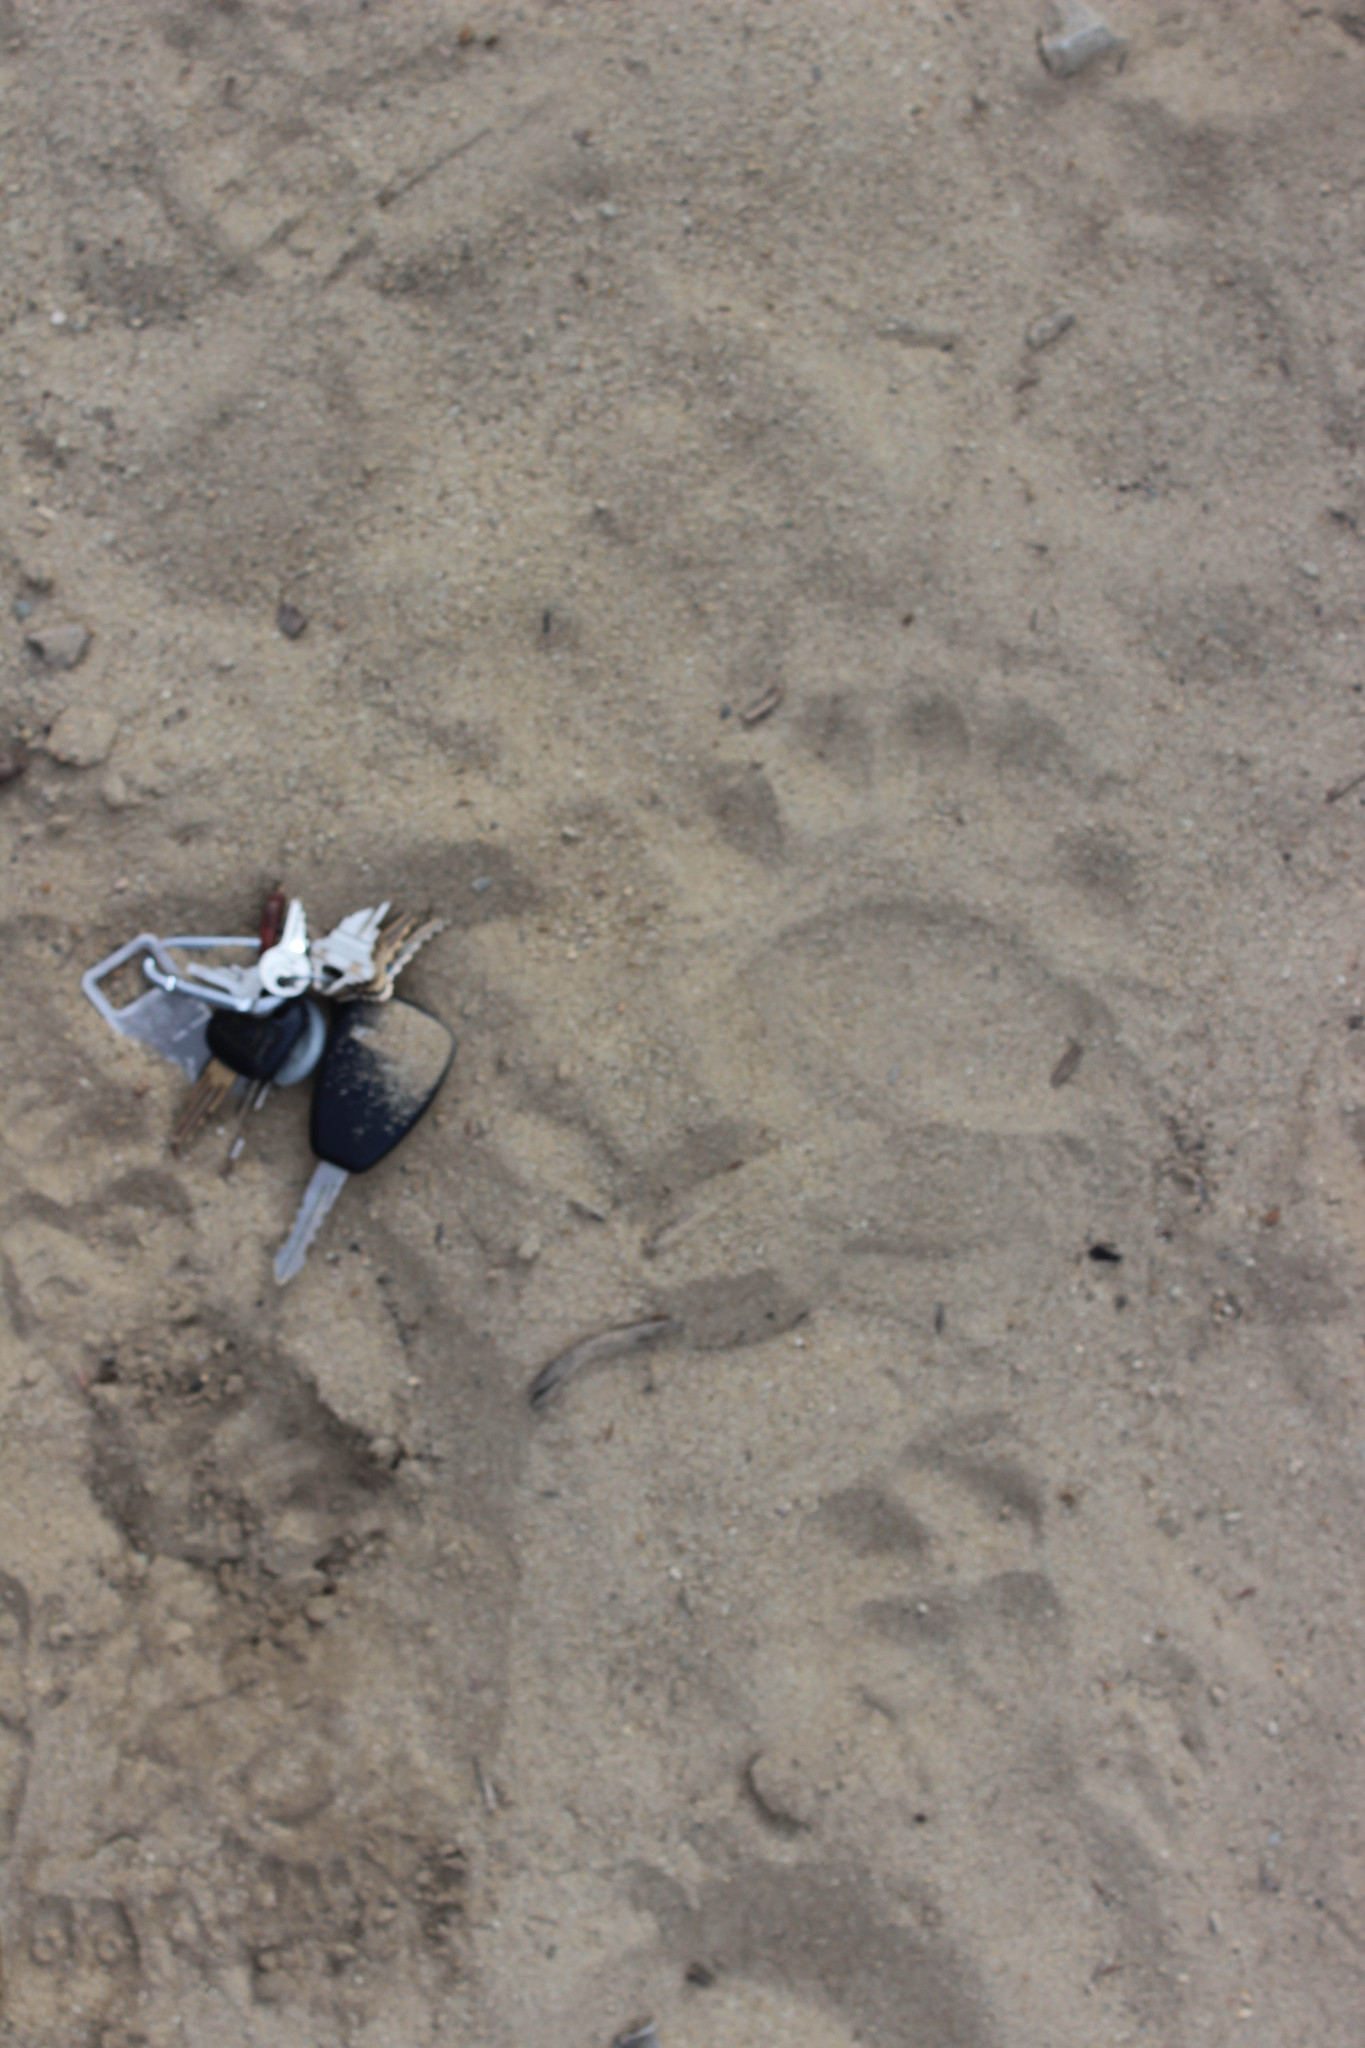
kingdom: Animalia
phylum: Chordata
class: Mammalia
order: Carnivora
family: Ursidae
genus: Ursus
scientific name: Ursus americanus
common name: American black bear
